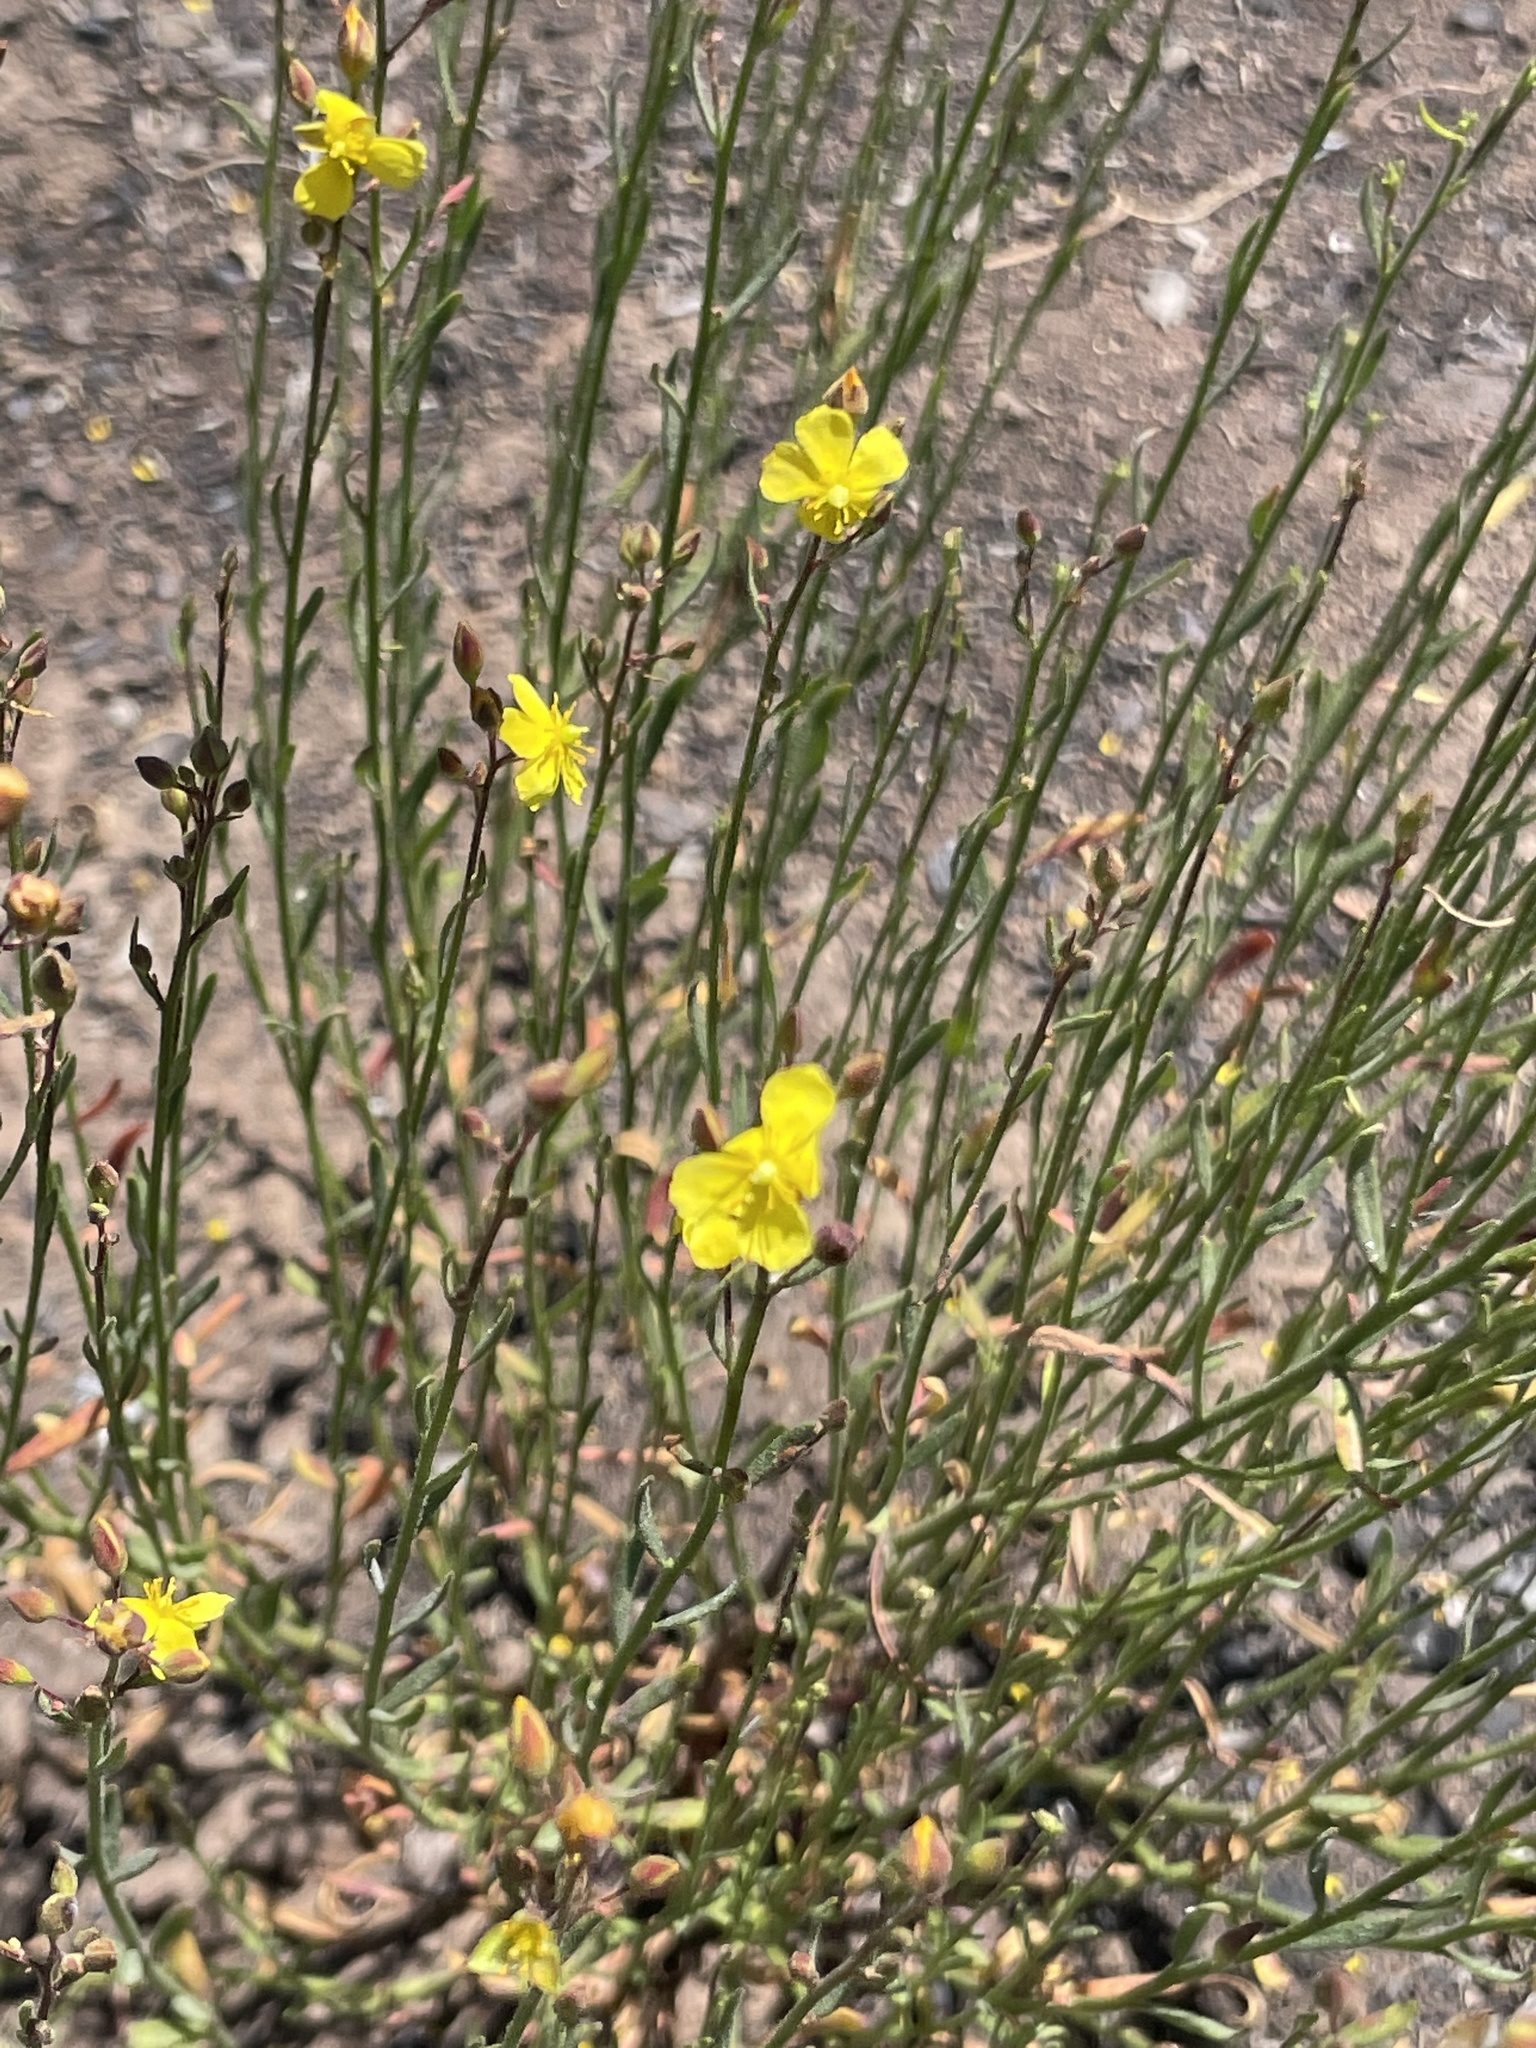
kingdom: Plantae
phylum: Tracheophyta
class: Magnoliopsida
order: Malvales
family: Cistaceae
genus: Crocanthemum
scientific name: Crocanthemum scoparium
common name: Broom-rose
